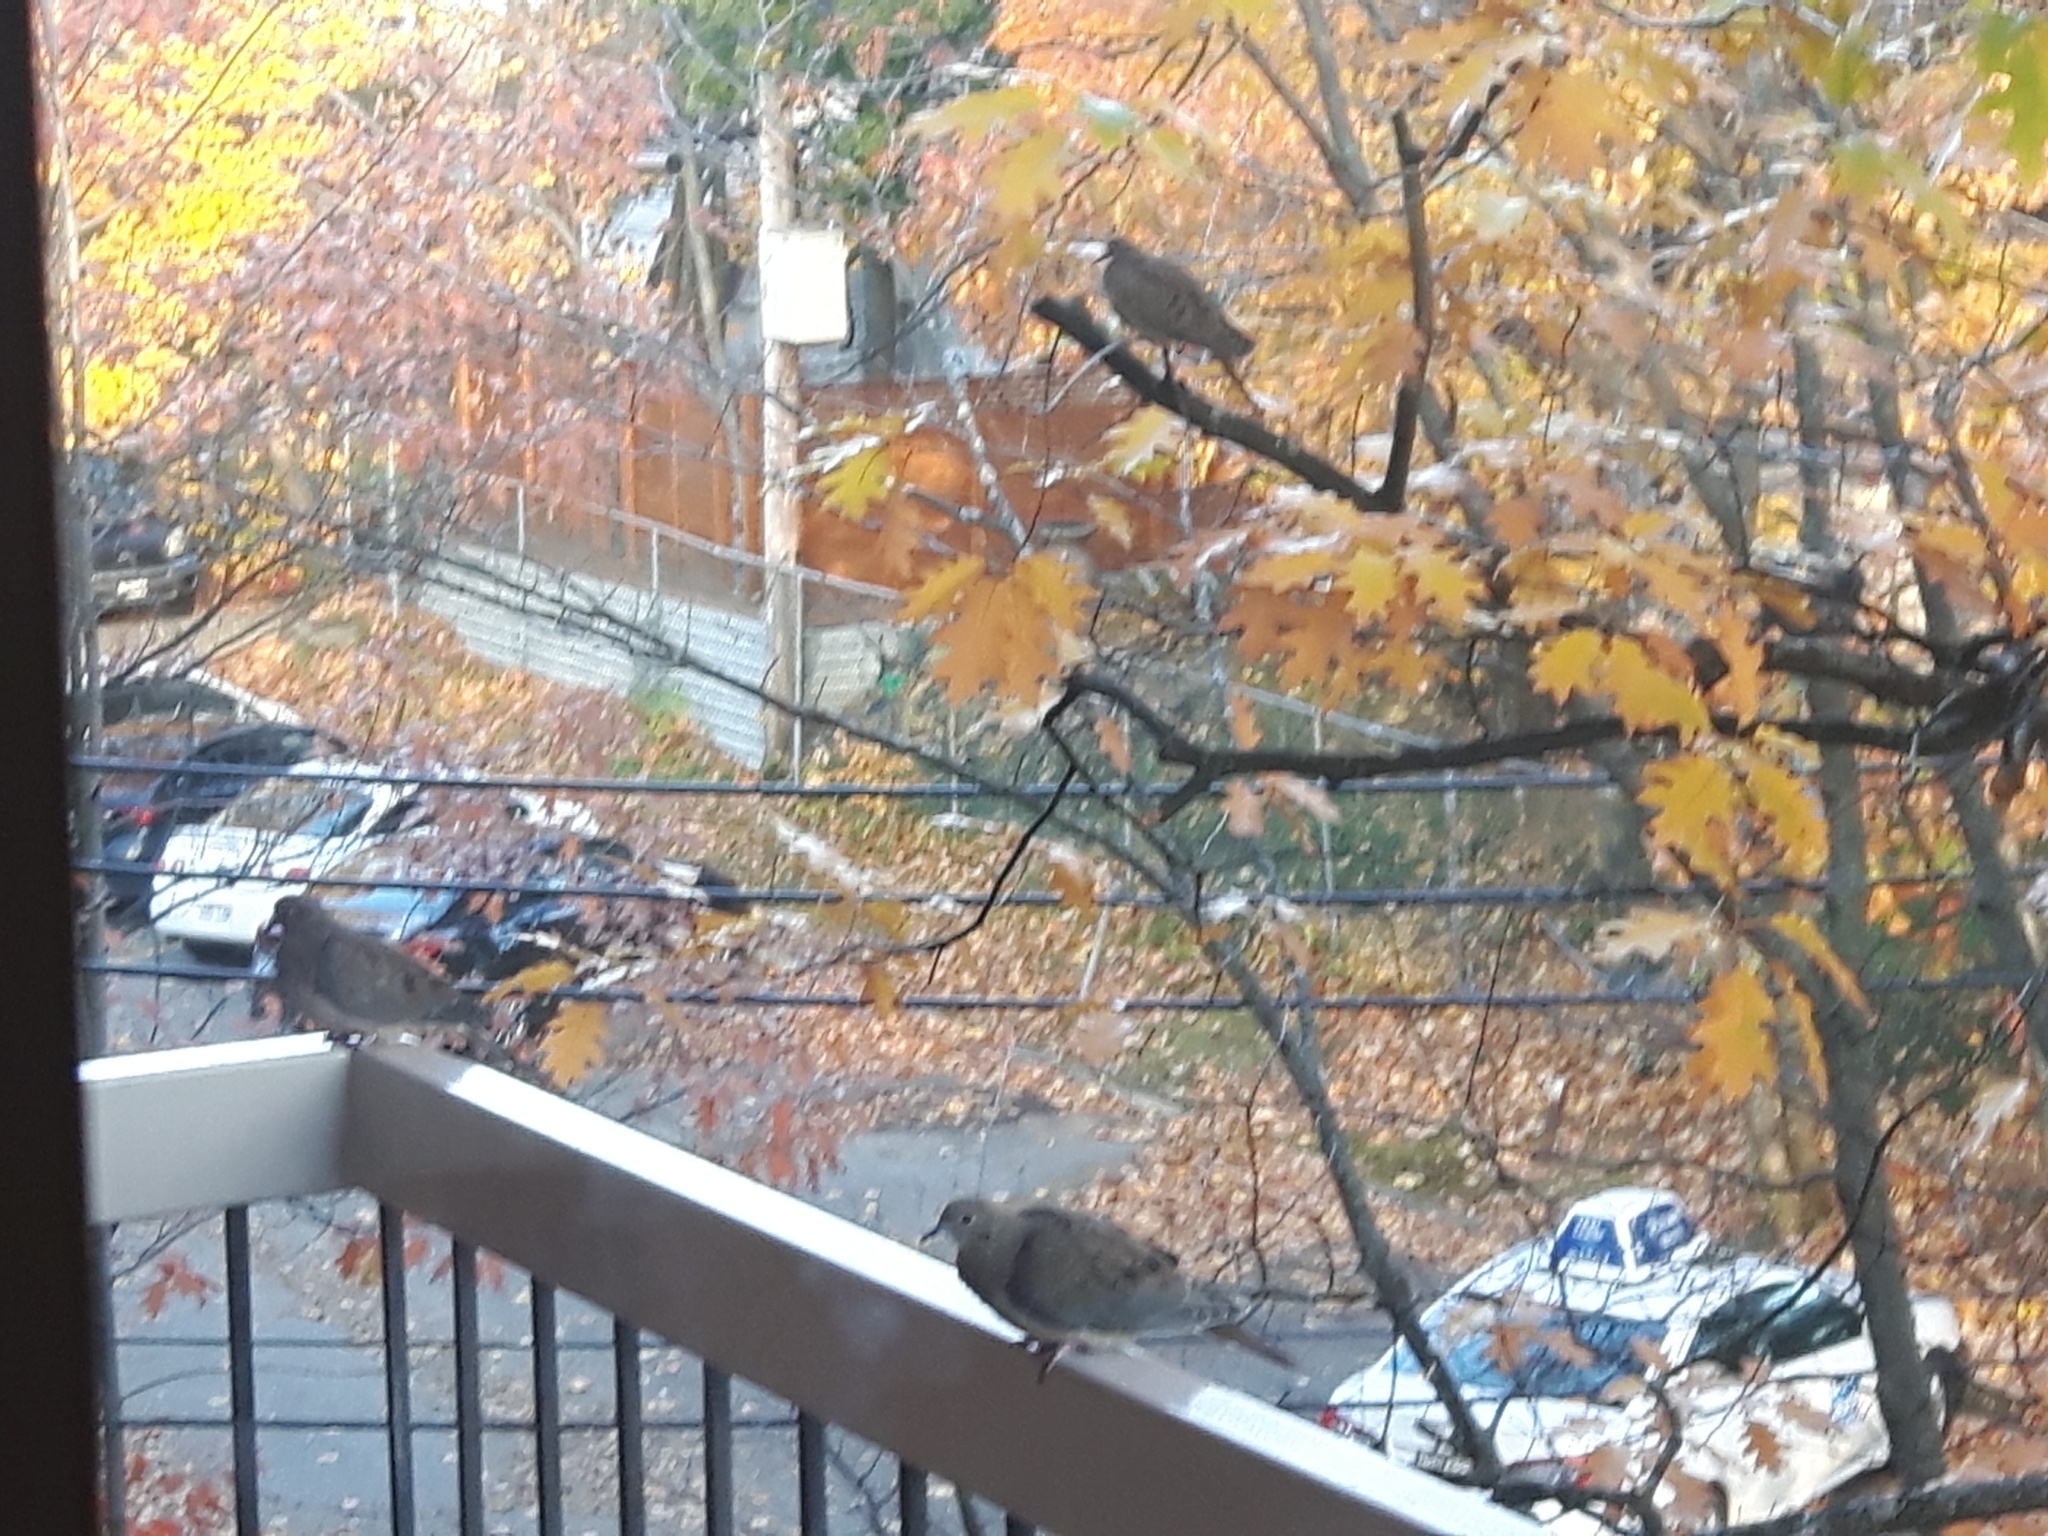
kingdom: Animalia
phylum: Chordata
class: Aves
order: Columbiformes
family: Columbidae
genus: Zenaida
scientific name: Zenaida macroura
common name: Mourning dove
